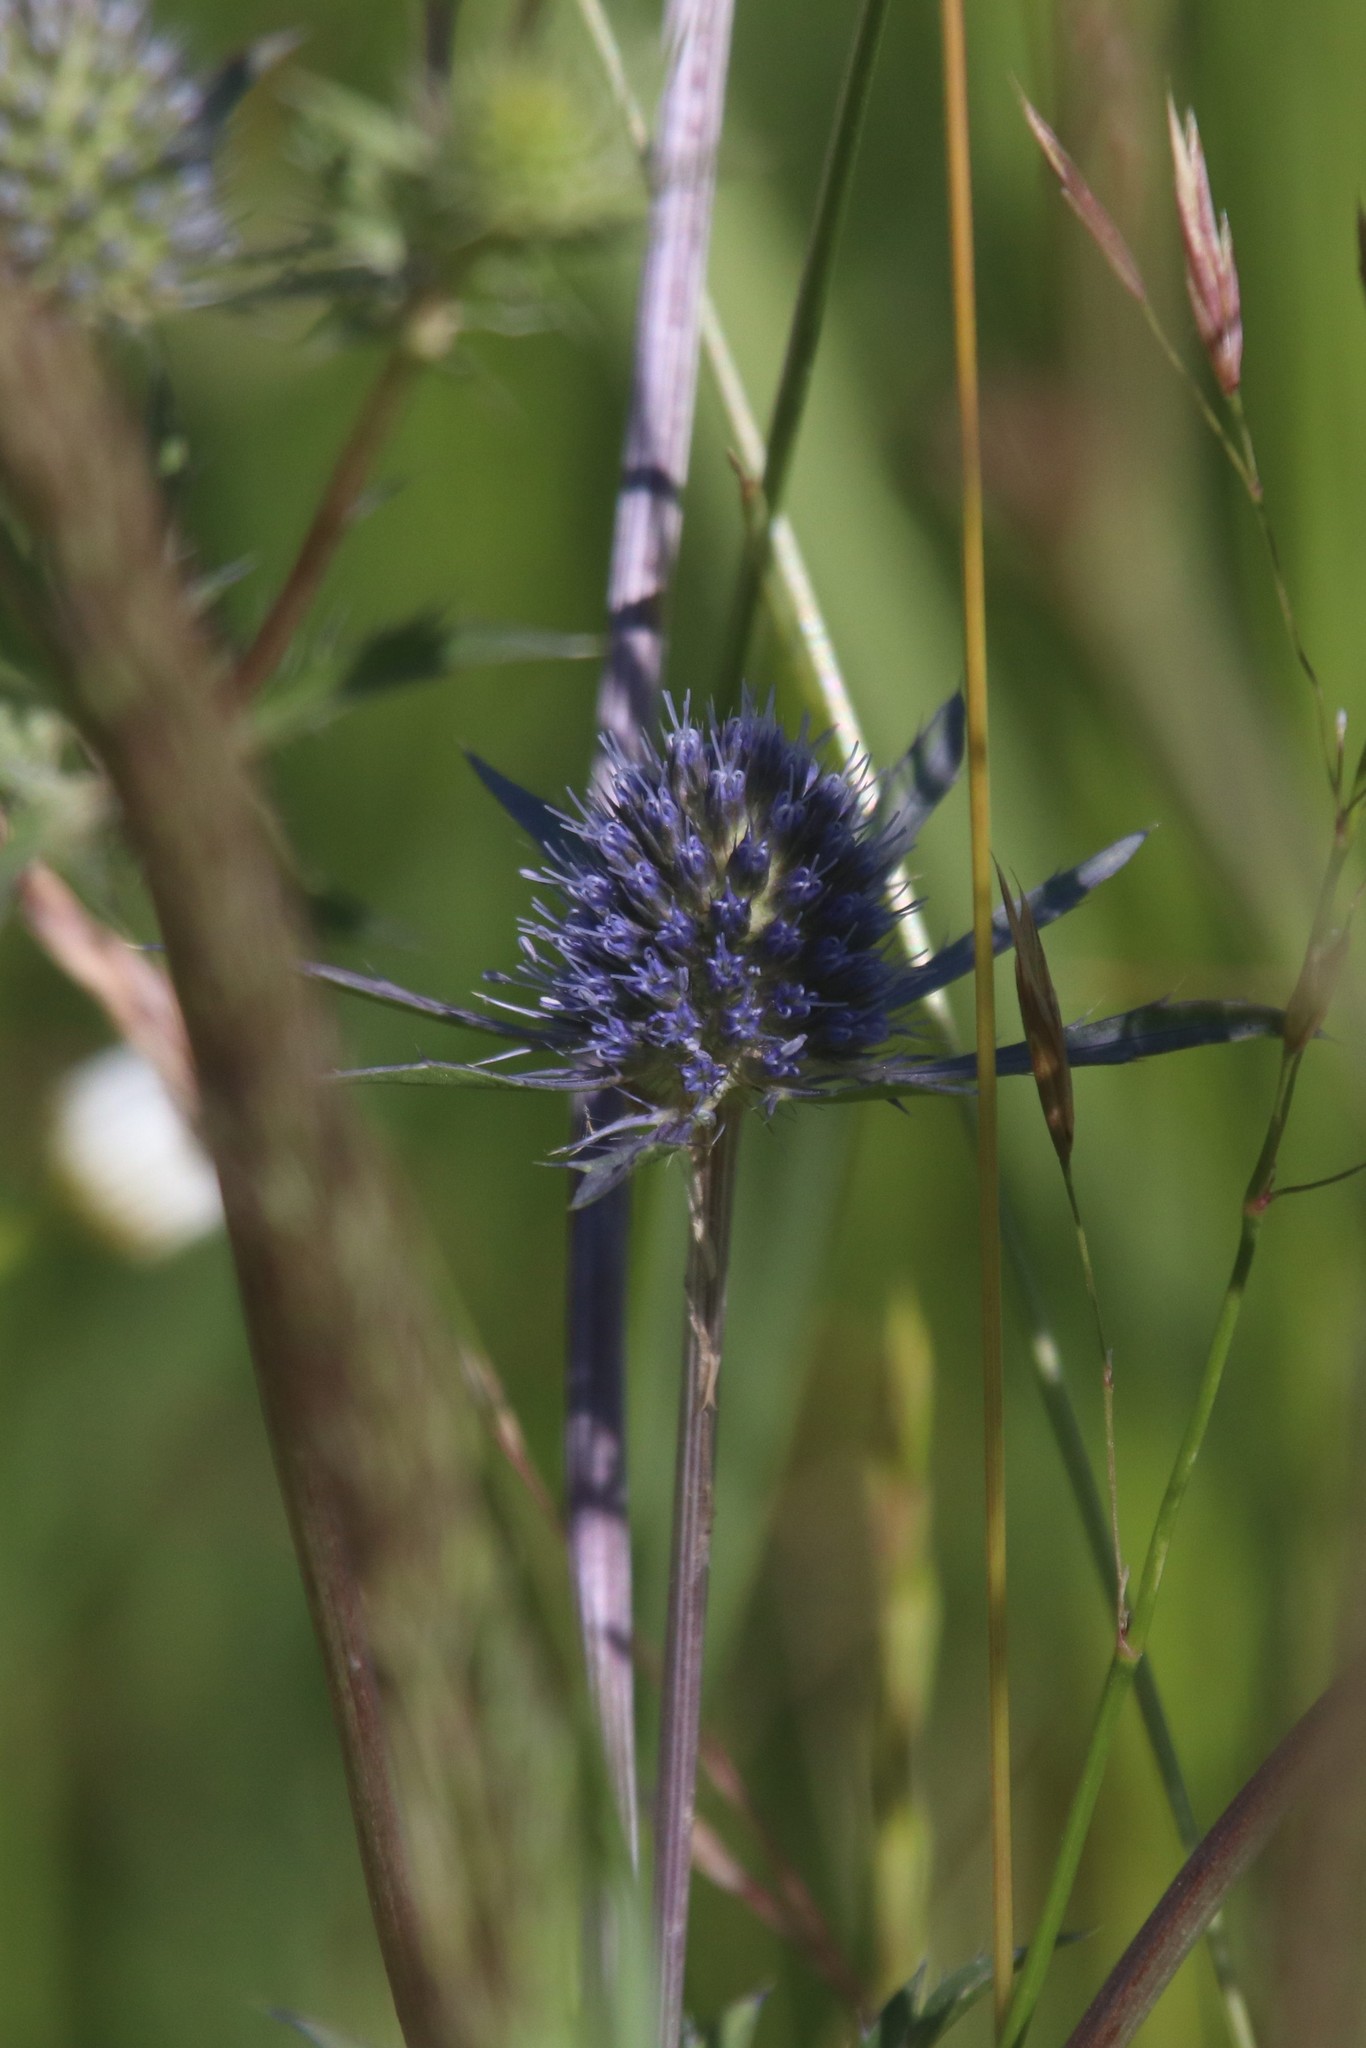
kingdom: Plantae
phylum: Tracheophyta
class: Magnoliopsida
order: Apiales
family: Apiaceae
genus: Eryngium
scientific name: Eryngium planum
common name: Blue eryngo
